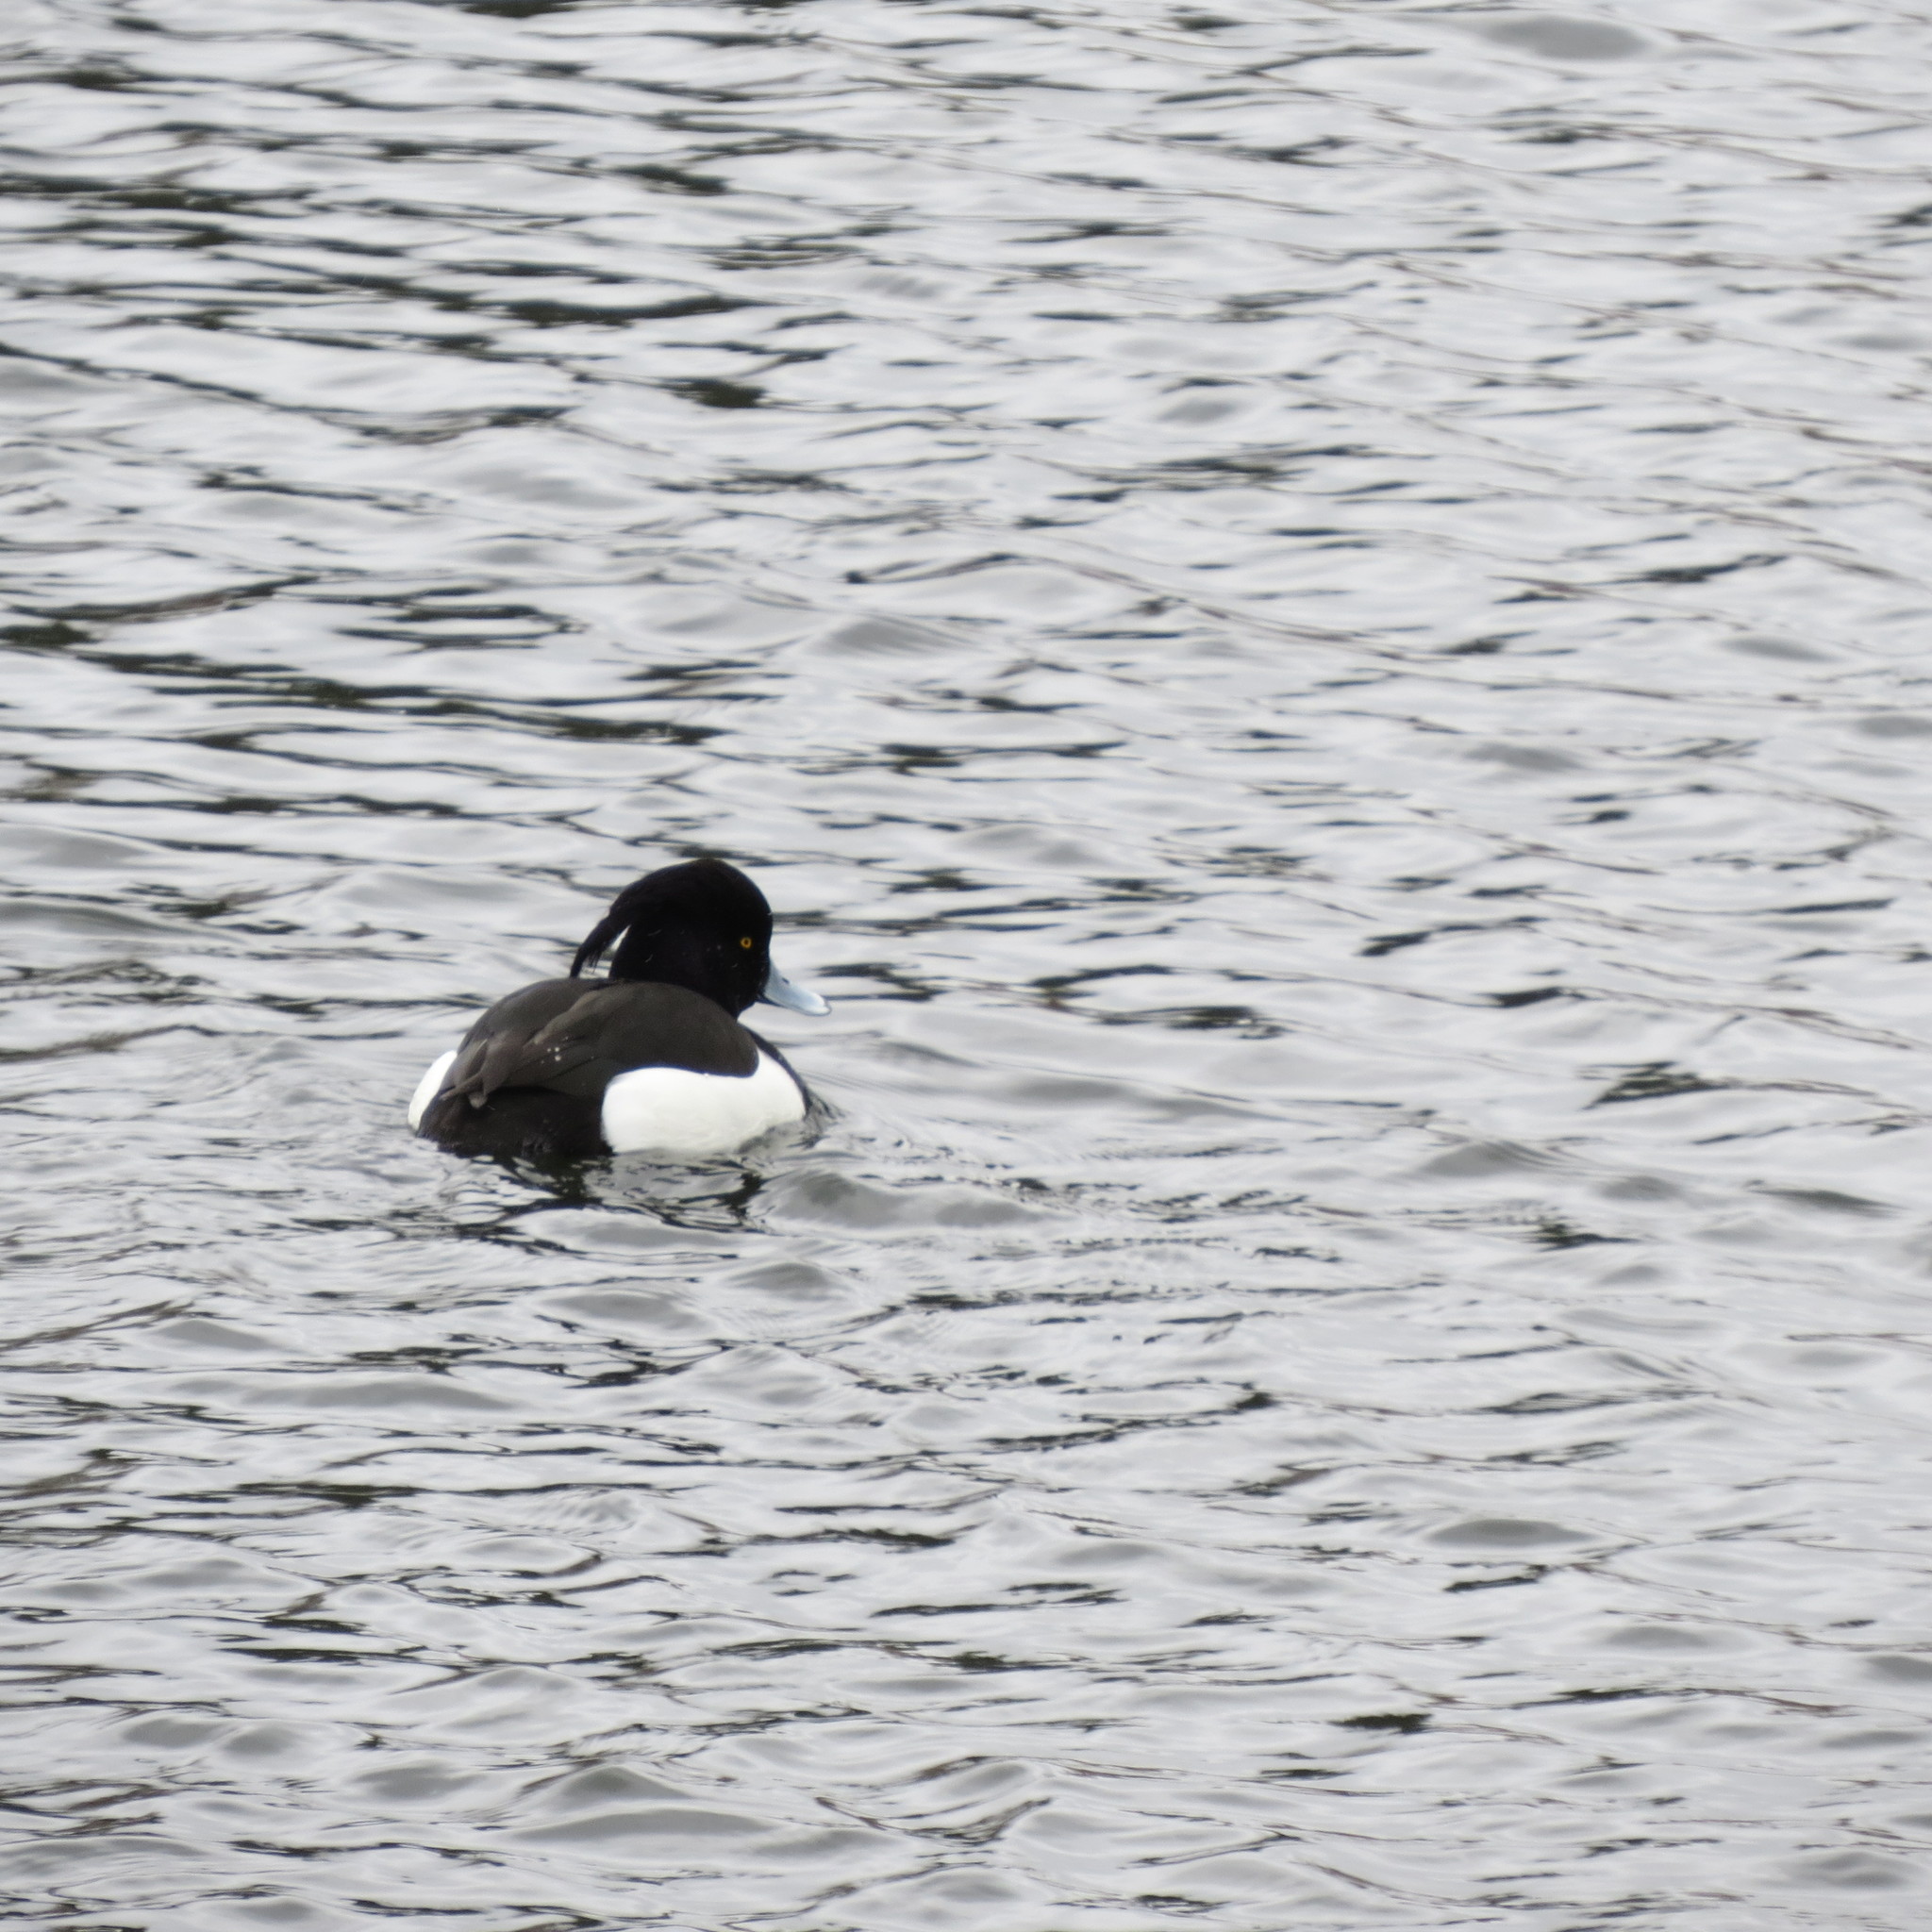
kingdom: Animalia
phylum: Chordata
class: Aves
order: Anseriformes
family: Anatidae
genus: Bucephala
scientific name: Bucephala clangula
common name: Common goldeneye
